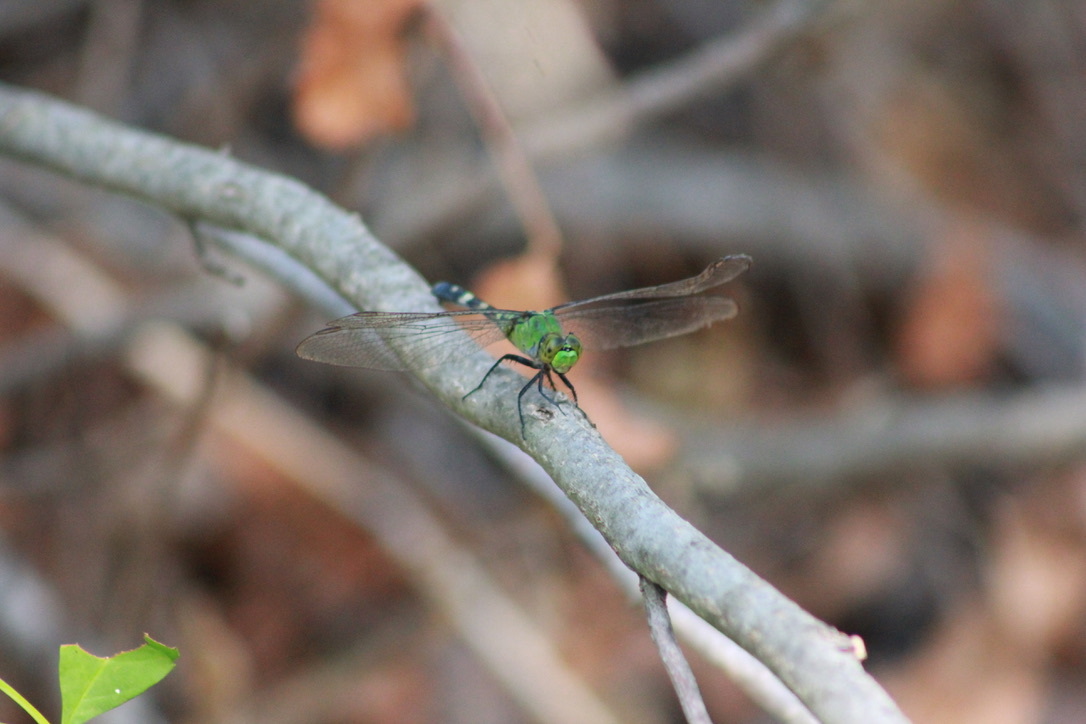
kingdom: Animalia
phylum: Arthropoda
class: Insecta
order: Odonata
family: Libellulidae
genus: Erythemis
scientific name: Erythemis simplicicollis
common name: Eastern pondhawk
